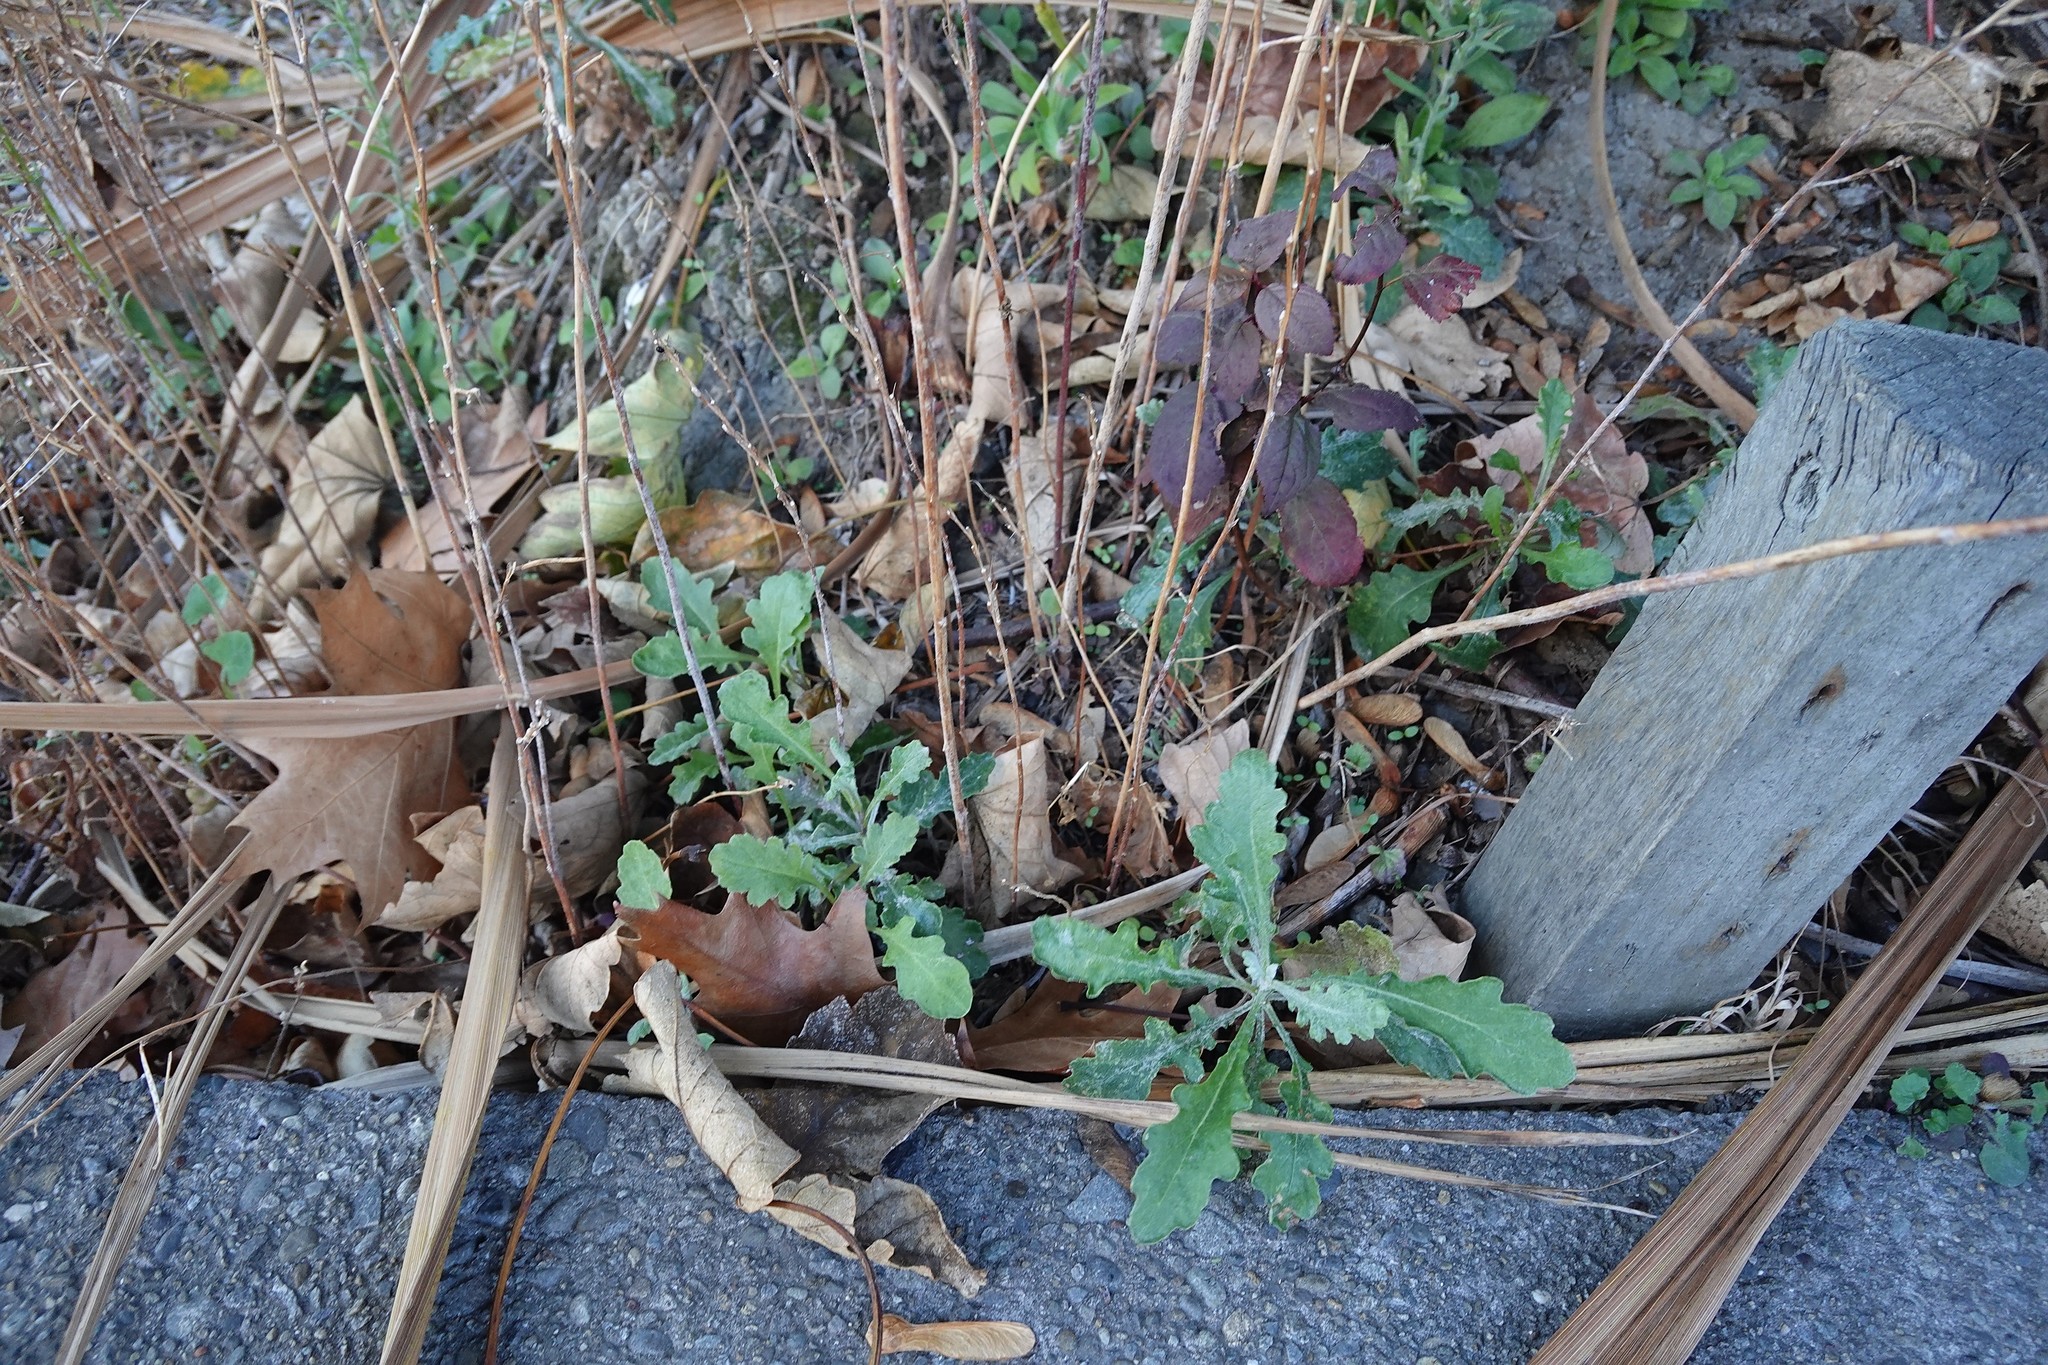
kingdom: Plantae
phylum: Tracheophyta
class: Magnoliopsida
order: Asterales
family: Asteraceae
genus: Senecio
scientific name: Senecio glomeratus
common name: Cutleaf burnweed
